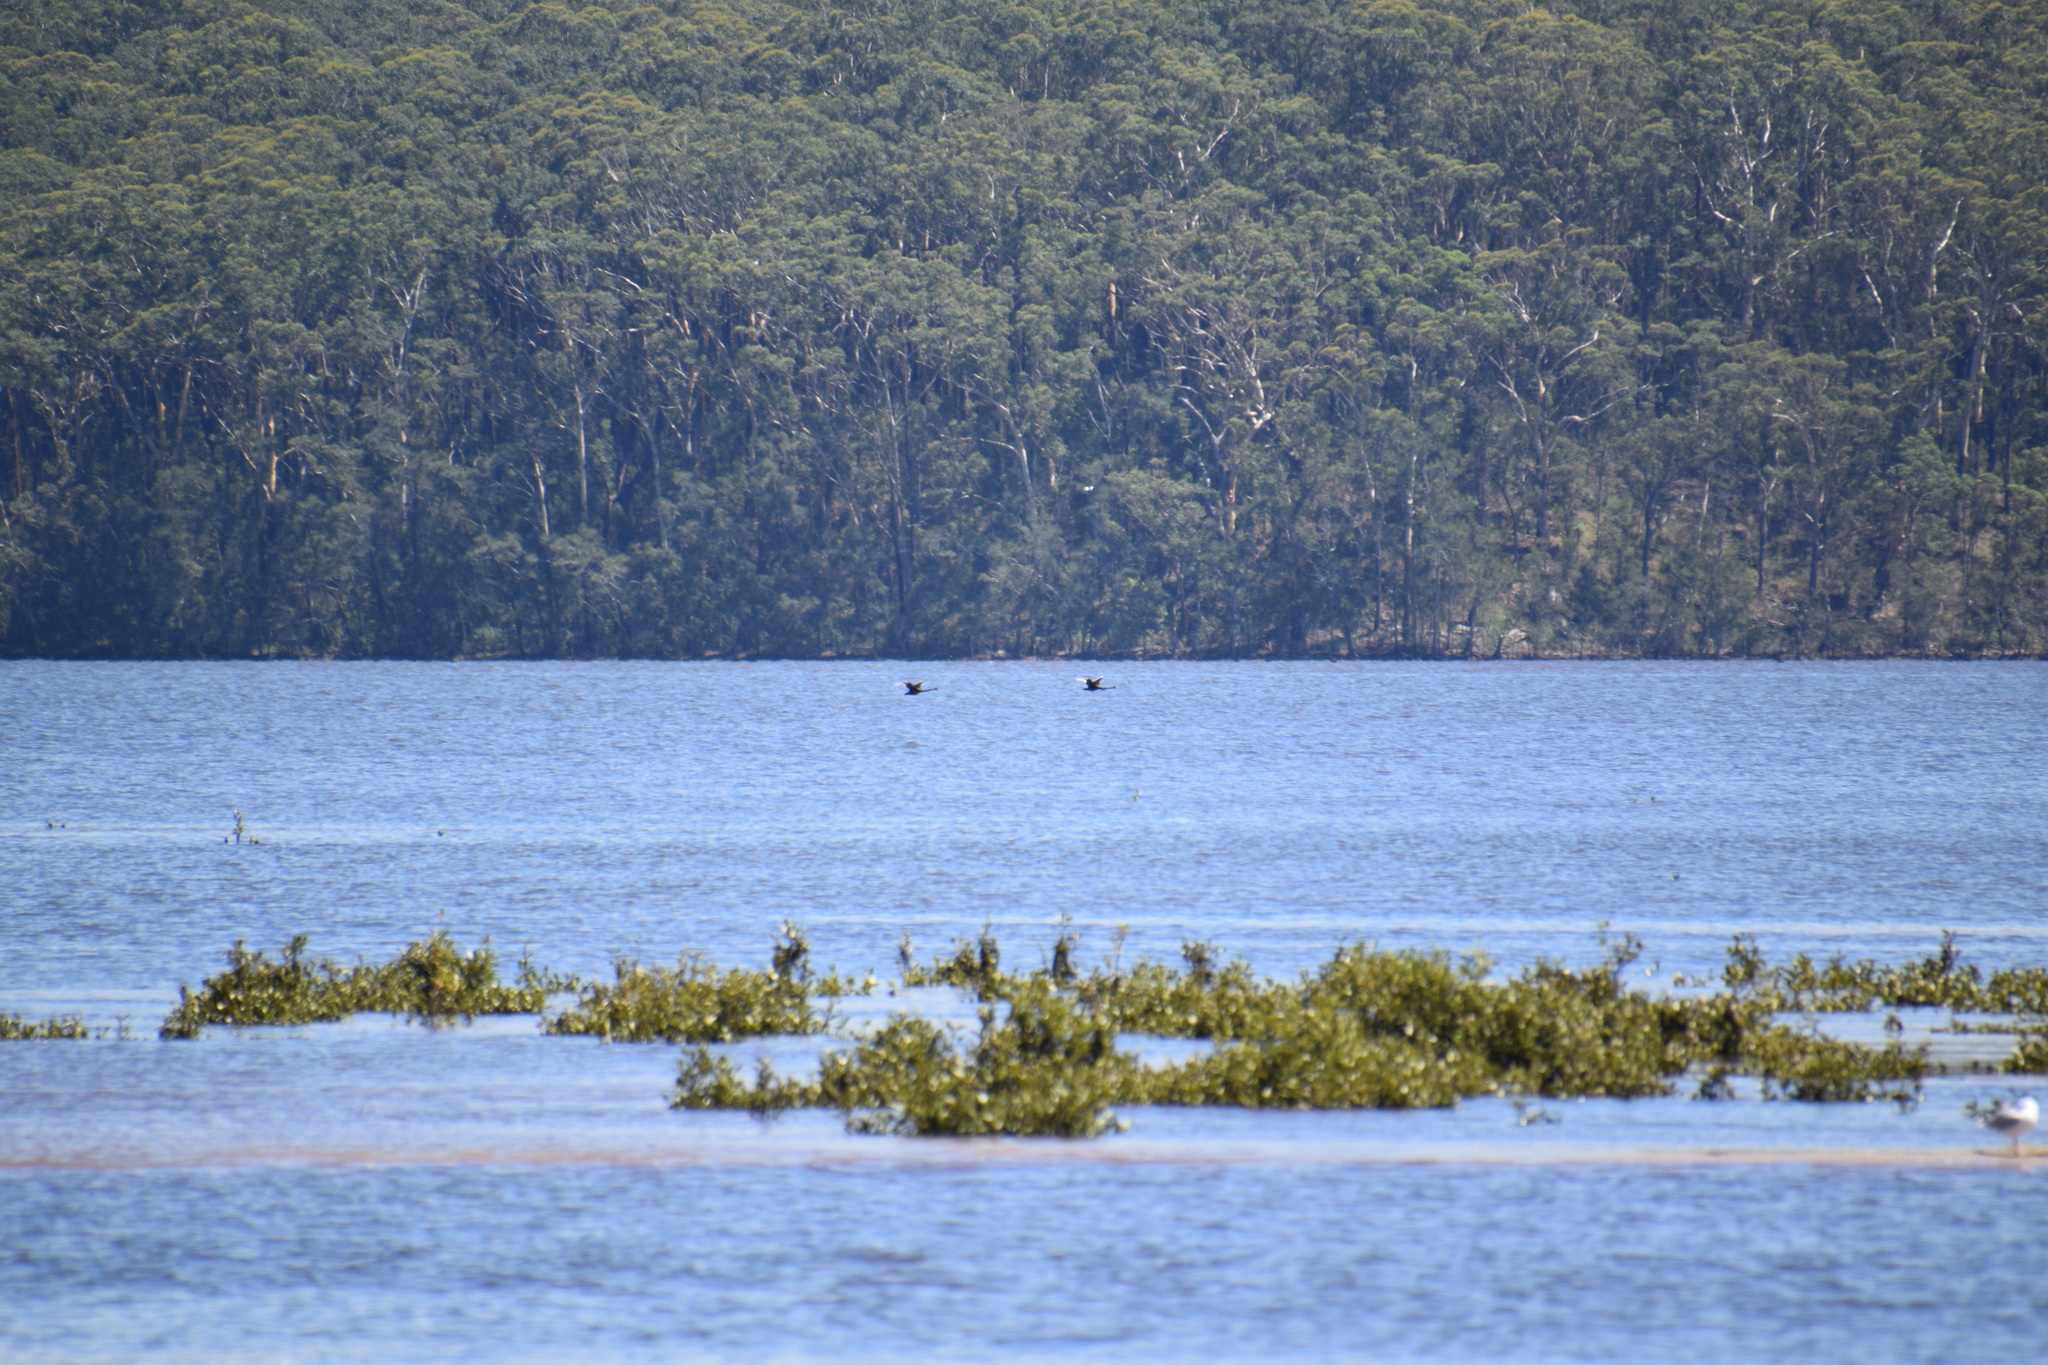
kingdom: Animalia
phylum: Chordata
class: Aves
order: Anseriformes
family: Anatidae
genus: Cygnus
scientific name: Cygnus atratus
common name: Black swan
